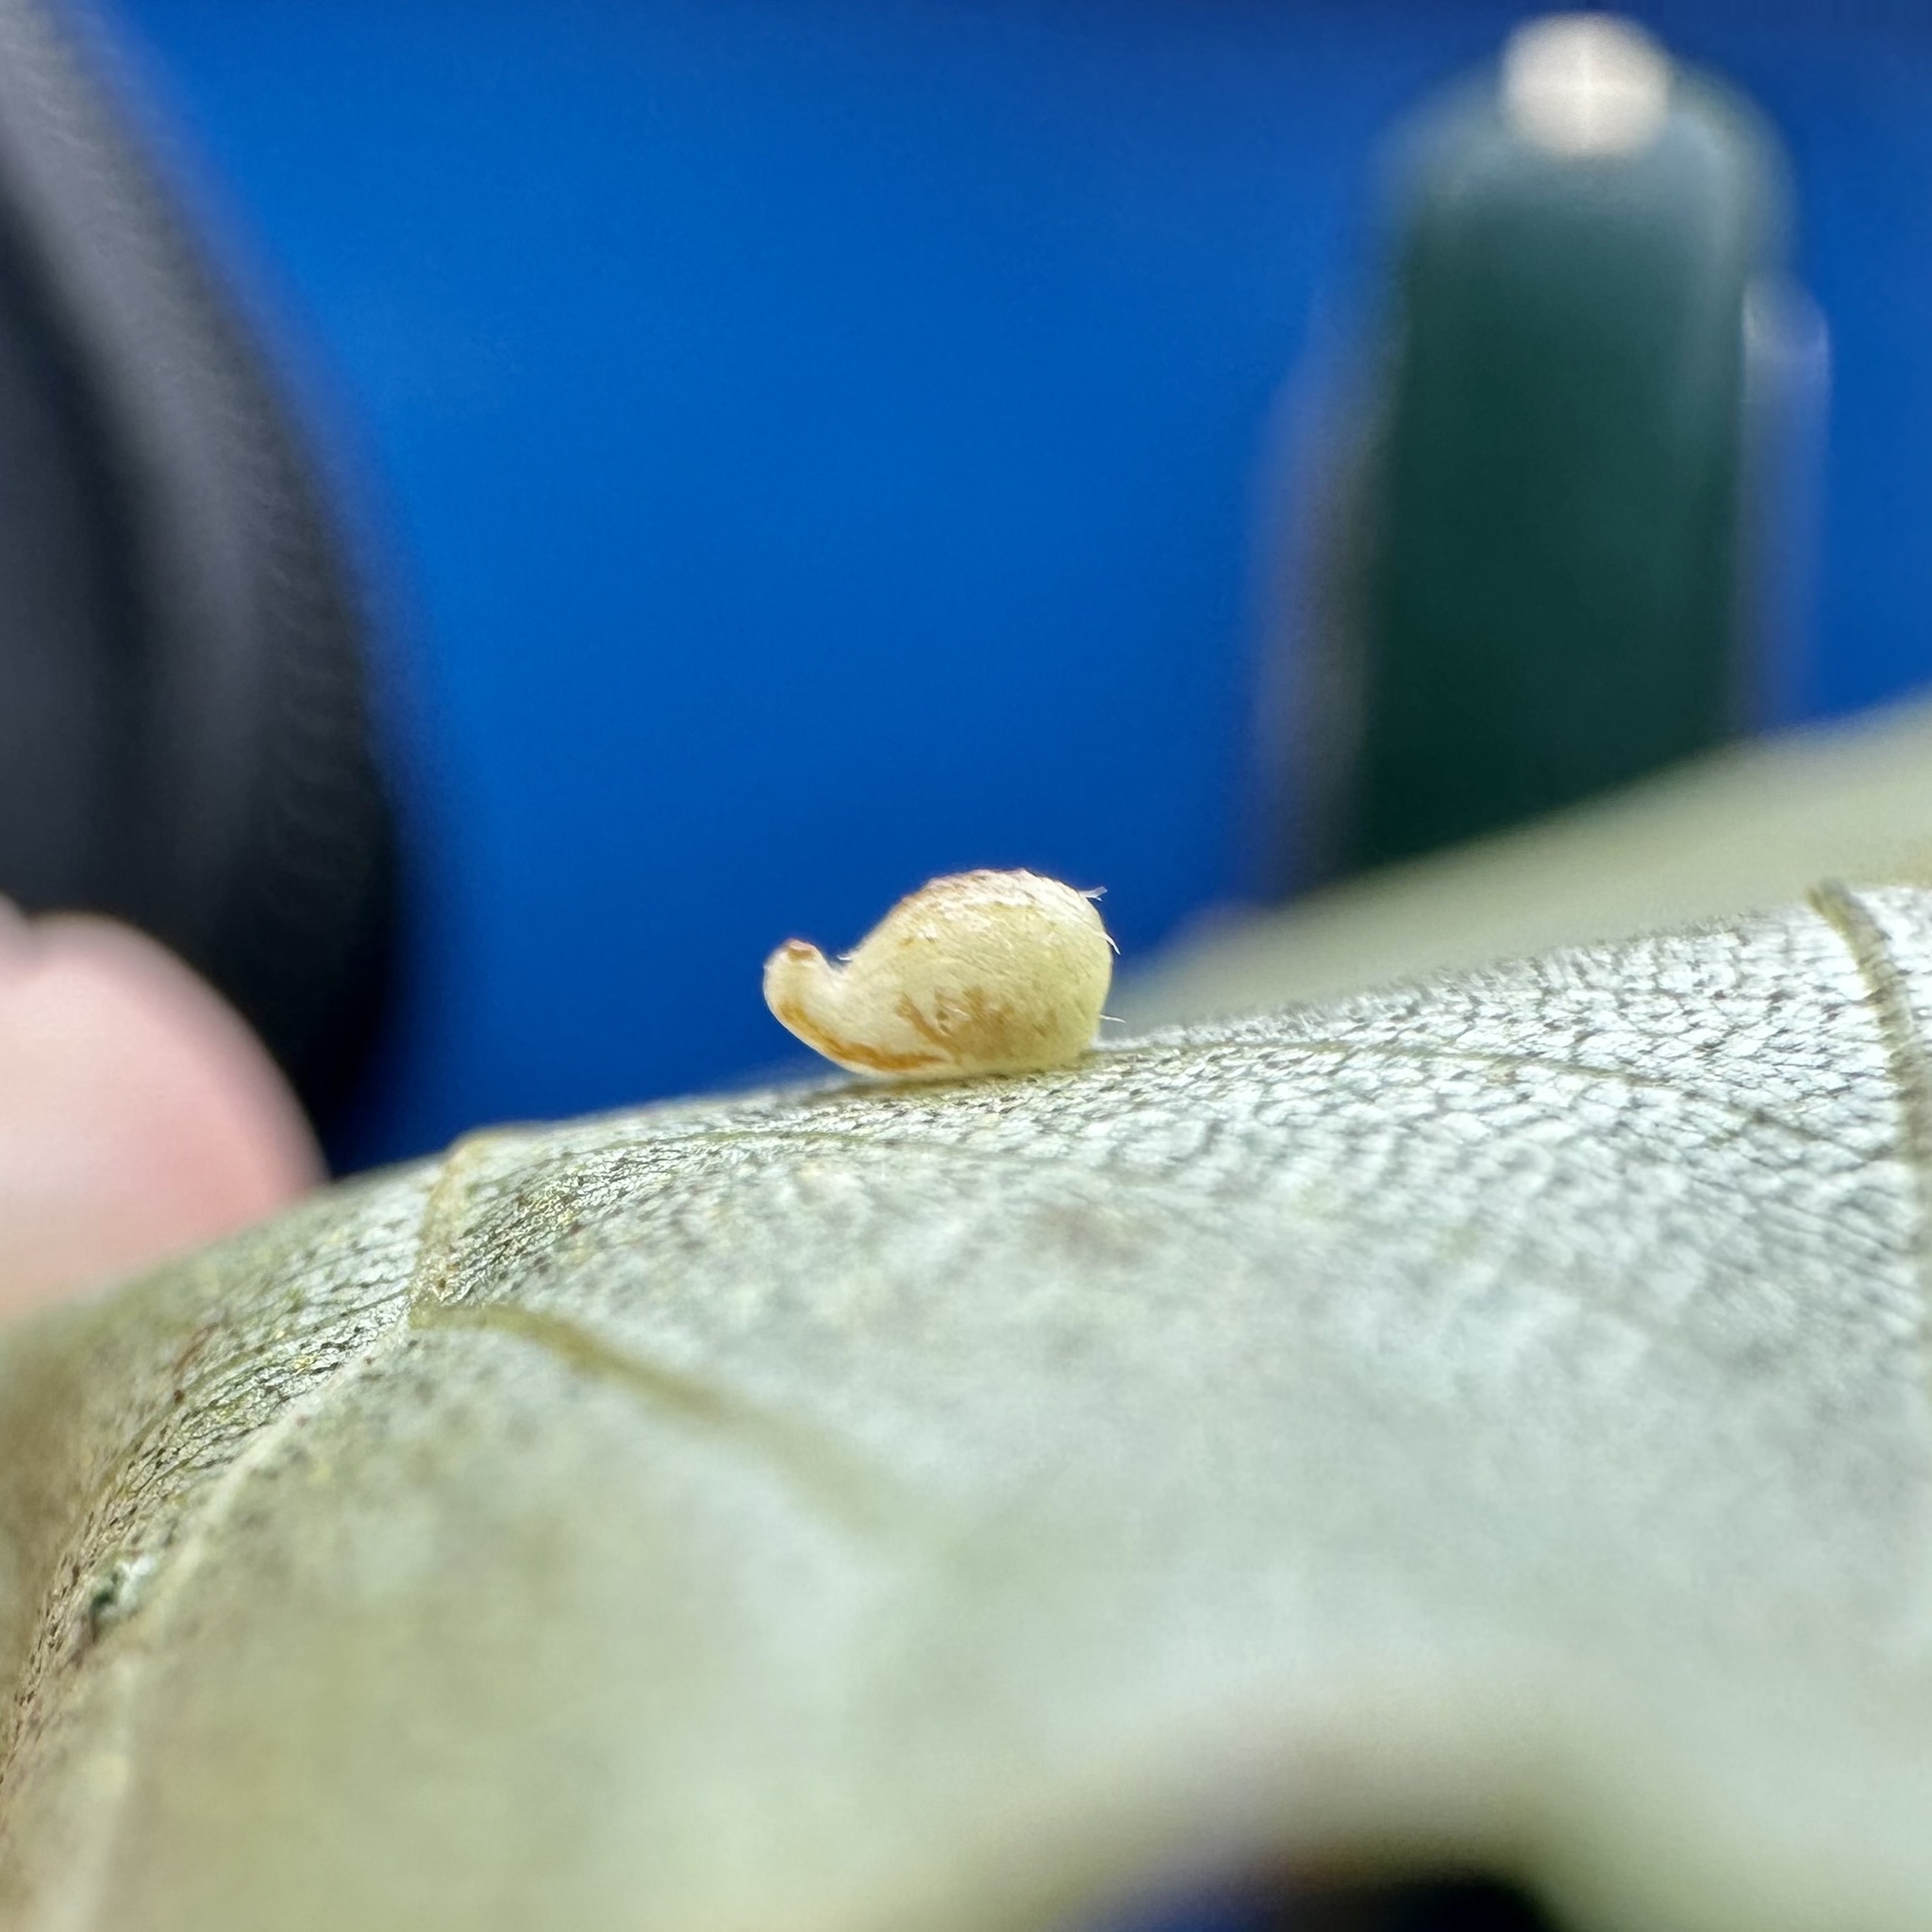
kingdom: Animalia
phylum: Arthropoda
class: Insecta
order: Diptera
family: Cecidomyiidae
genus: Caryomyia
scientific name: Caryomyia eumaris
